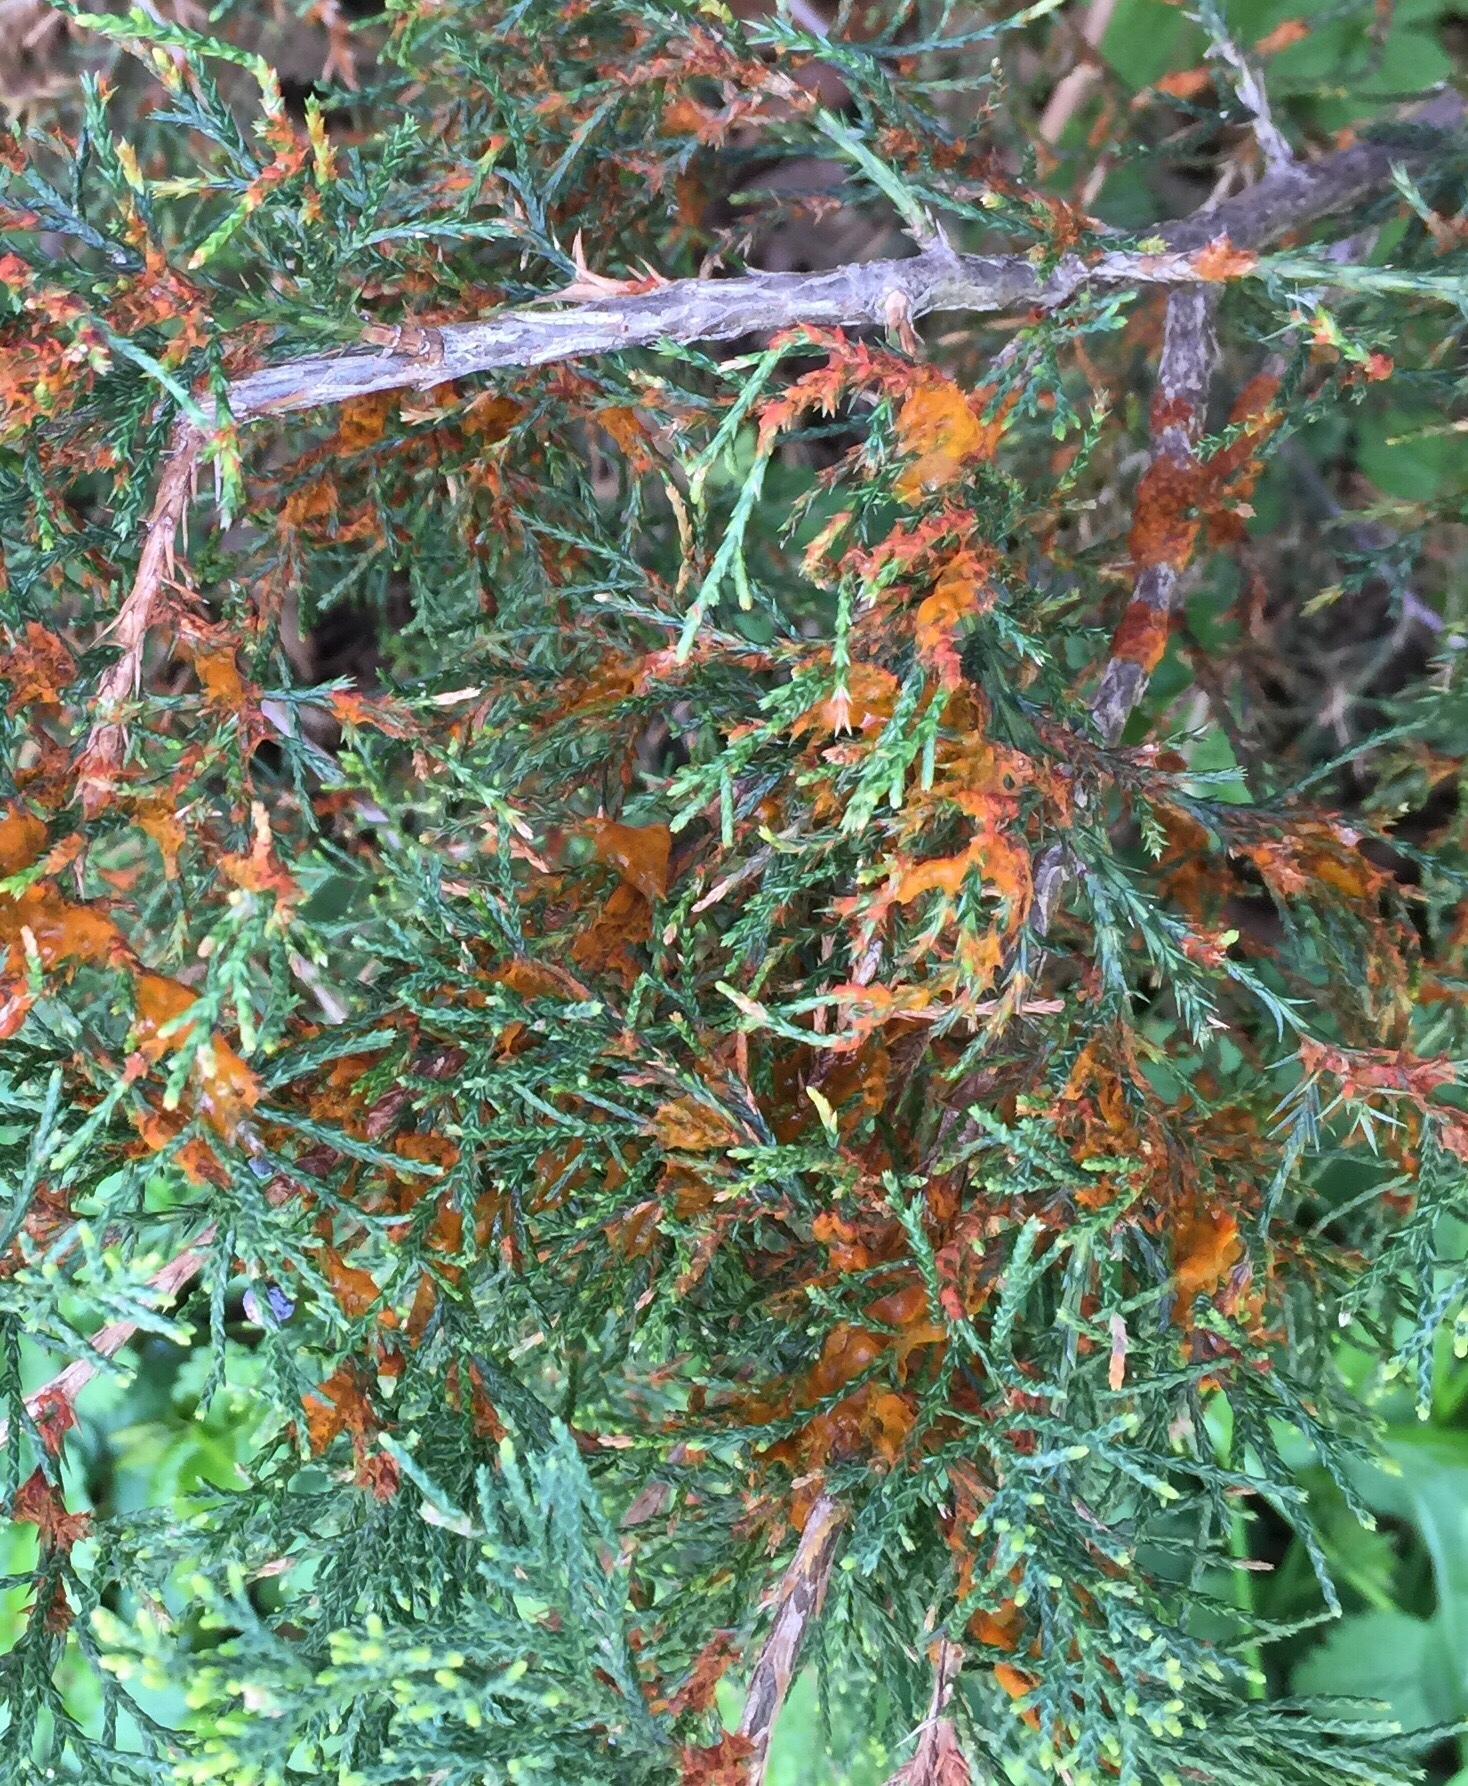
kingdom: Fungi
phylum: Basidiomycota
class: Pucciniomycetes
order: Pucciniales
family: Gymnosporangiaceae
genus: Gymnosporangium
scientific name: Gymnosporangium juniperi-virginianae
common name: Juniper-apple rust
